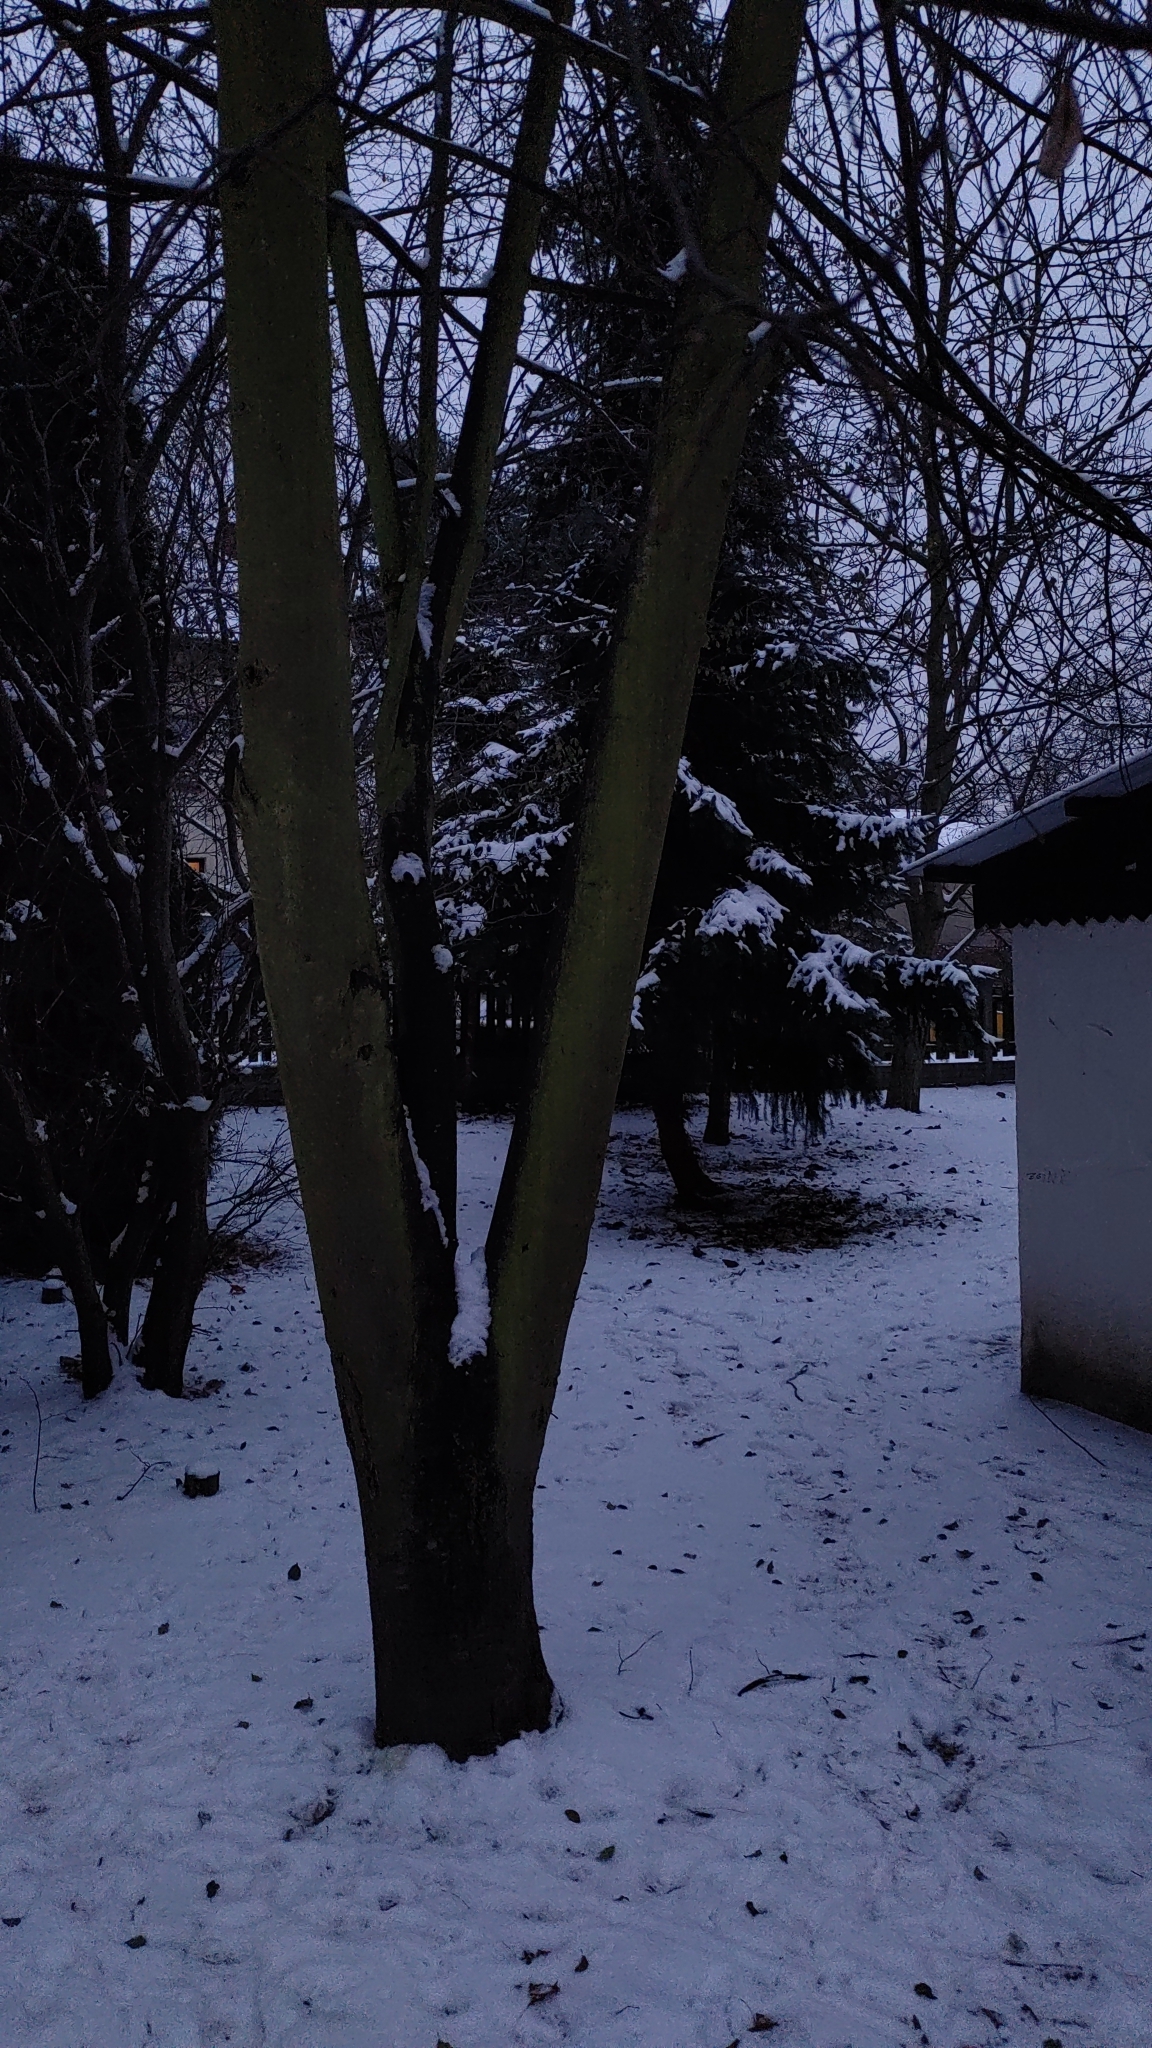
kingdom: Animalia
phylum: Chordata
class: Aves
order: Passeriformes
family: Muscicapidae
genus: Erithacus
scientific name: Erithacus rubecula
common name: European robin
